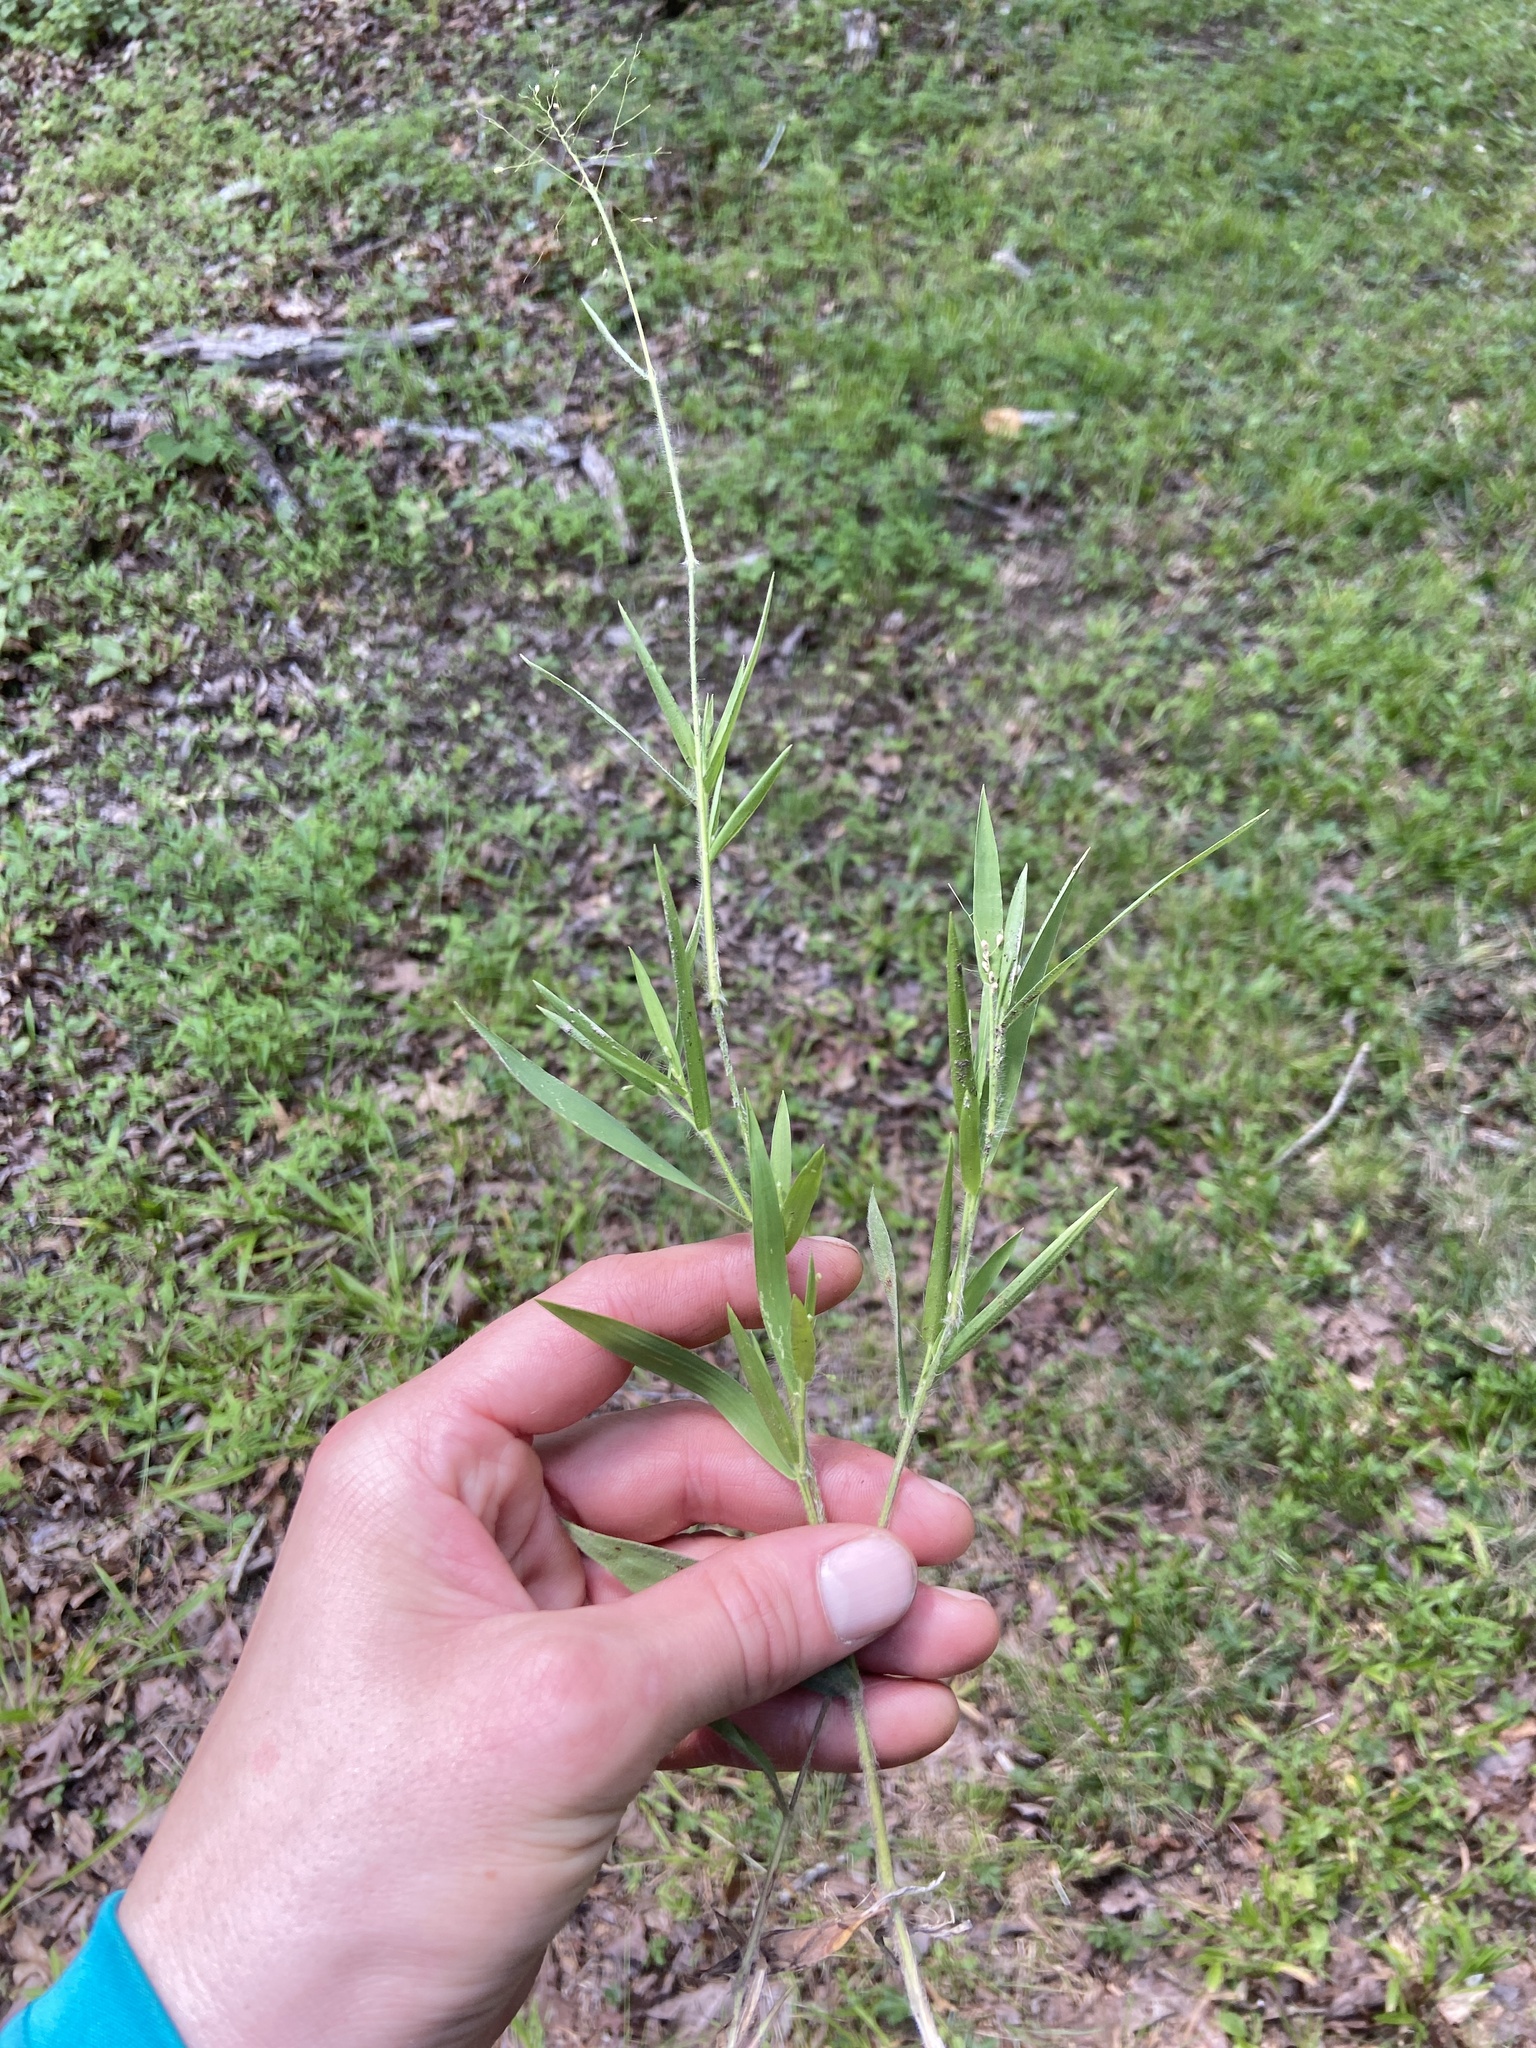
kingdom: Plantae
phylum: Tracheophyta
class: Liliopsida
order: Poales
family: Poaceae
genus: Dichanthelium
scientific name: Dichanthelium acuminatum
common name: Hairy panic grass
